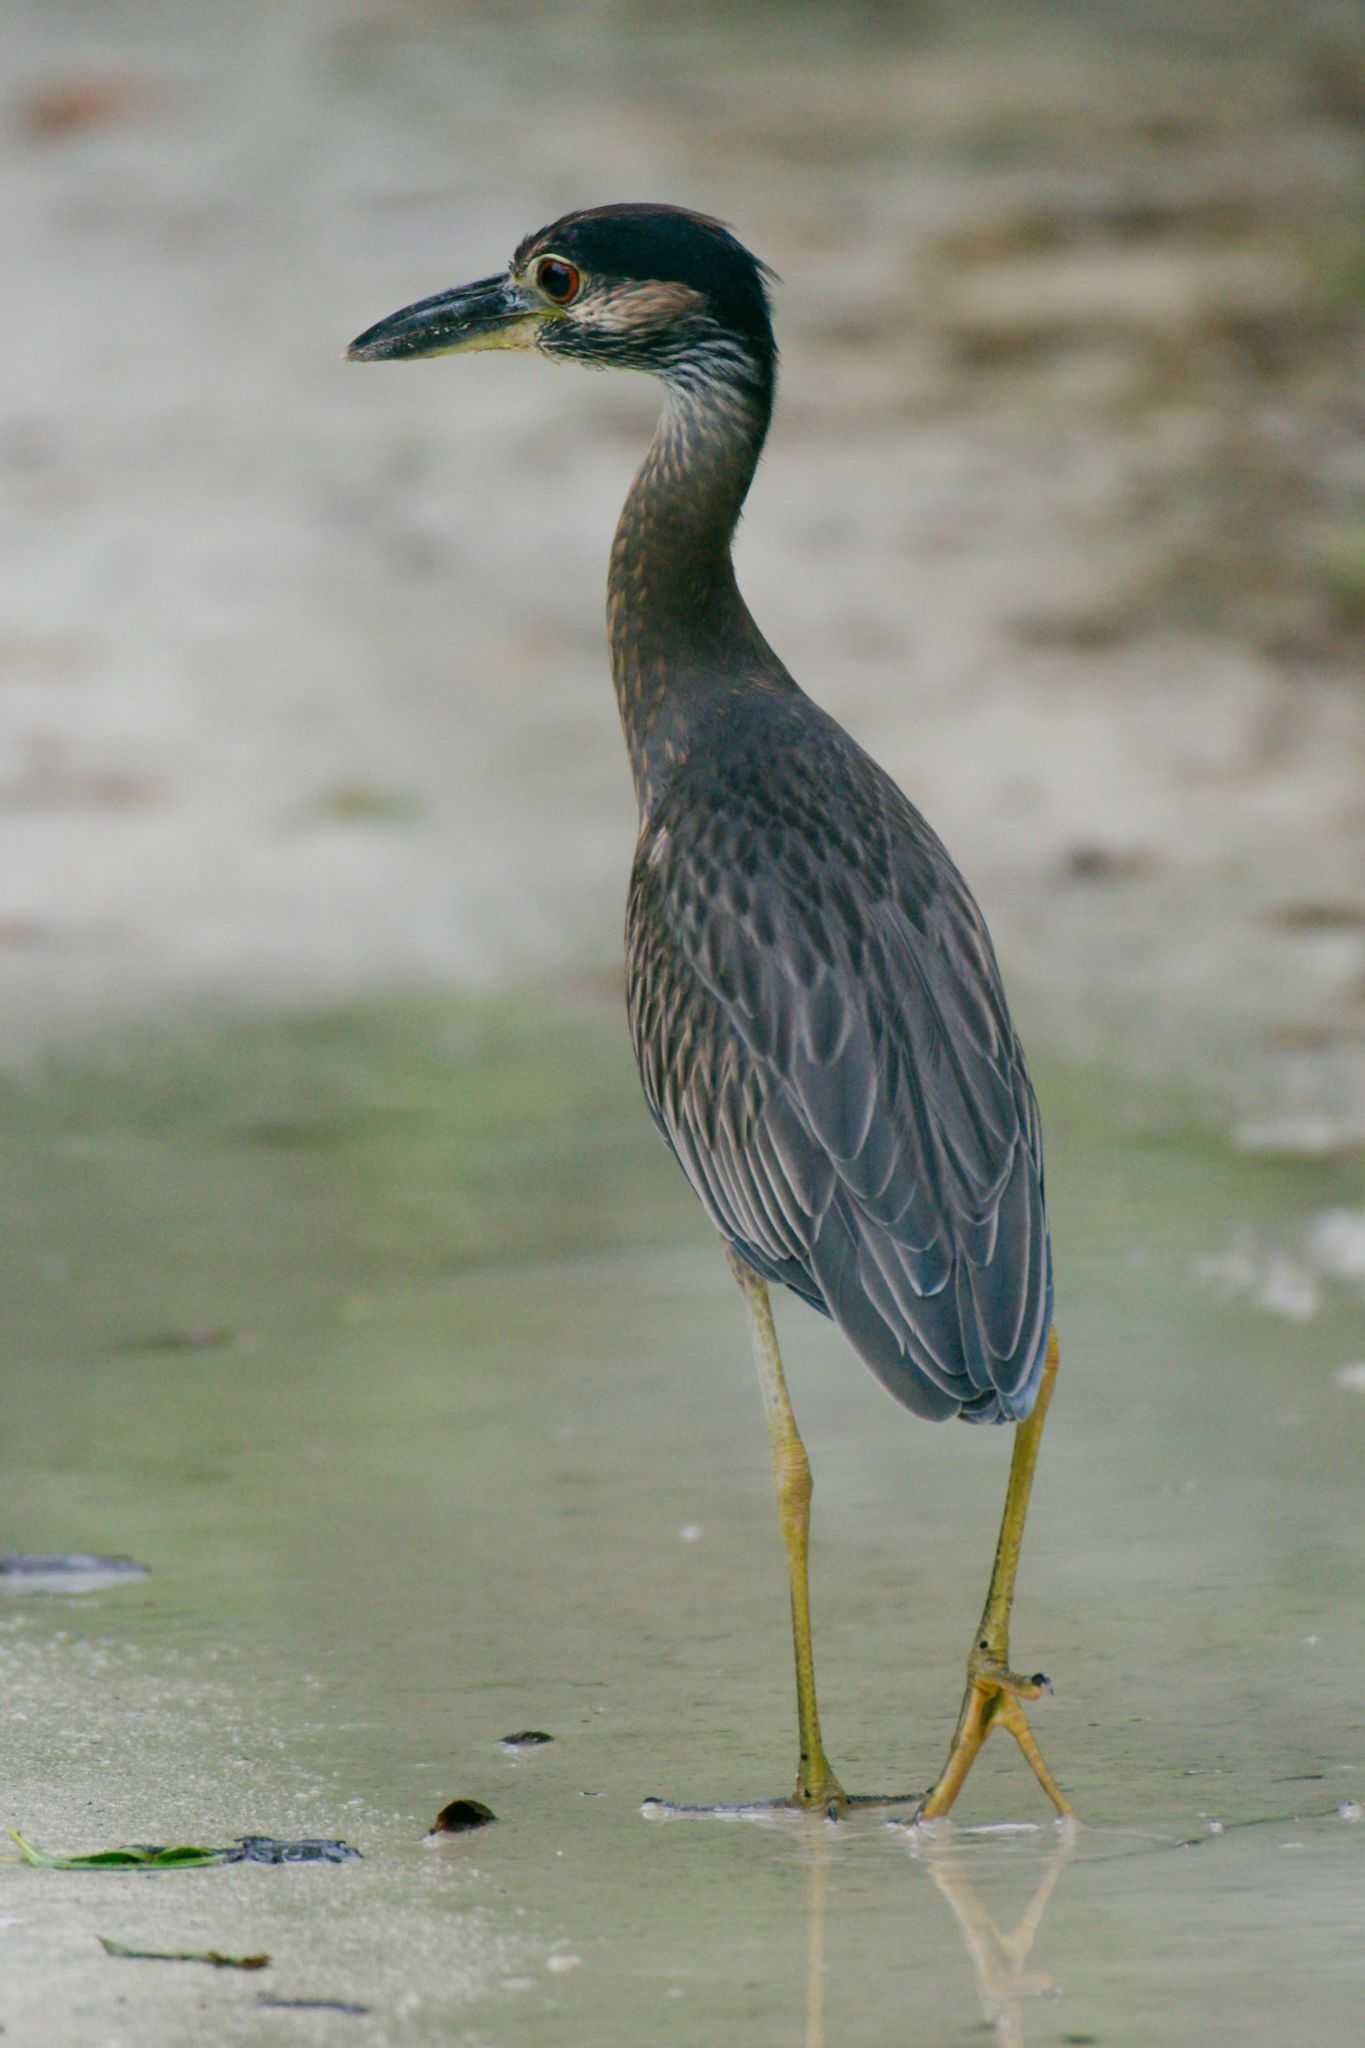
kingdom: Animalia
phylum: Chordata
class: Aves
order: Pelecaniformes
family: Ardeidae
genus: Nyctanassa
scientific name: Nyctanassa violacea
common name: Yellow-crowned night heron
